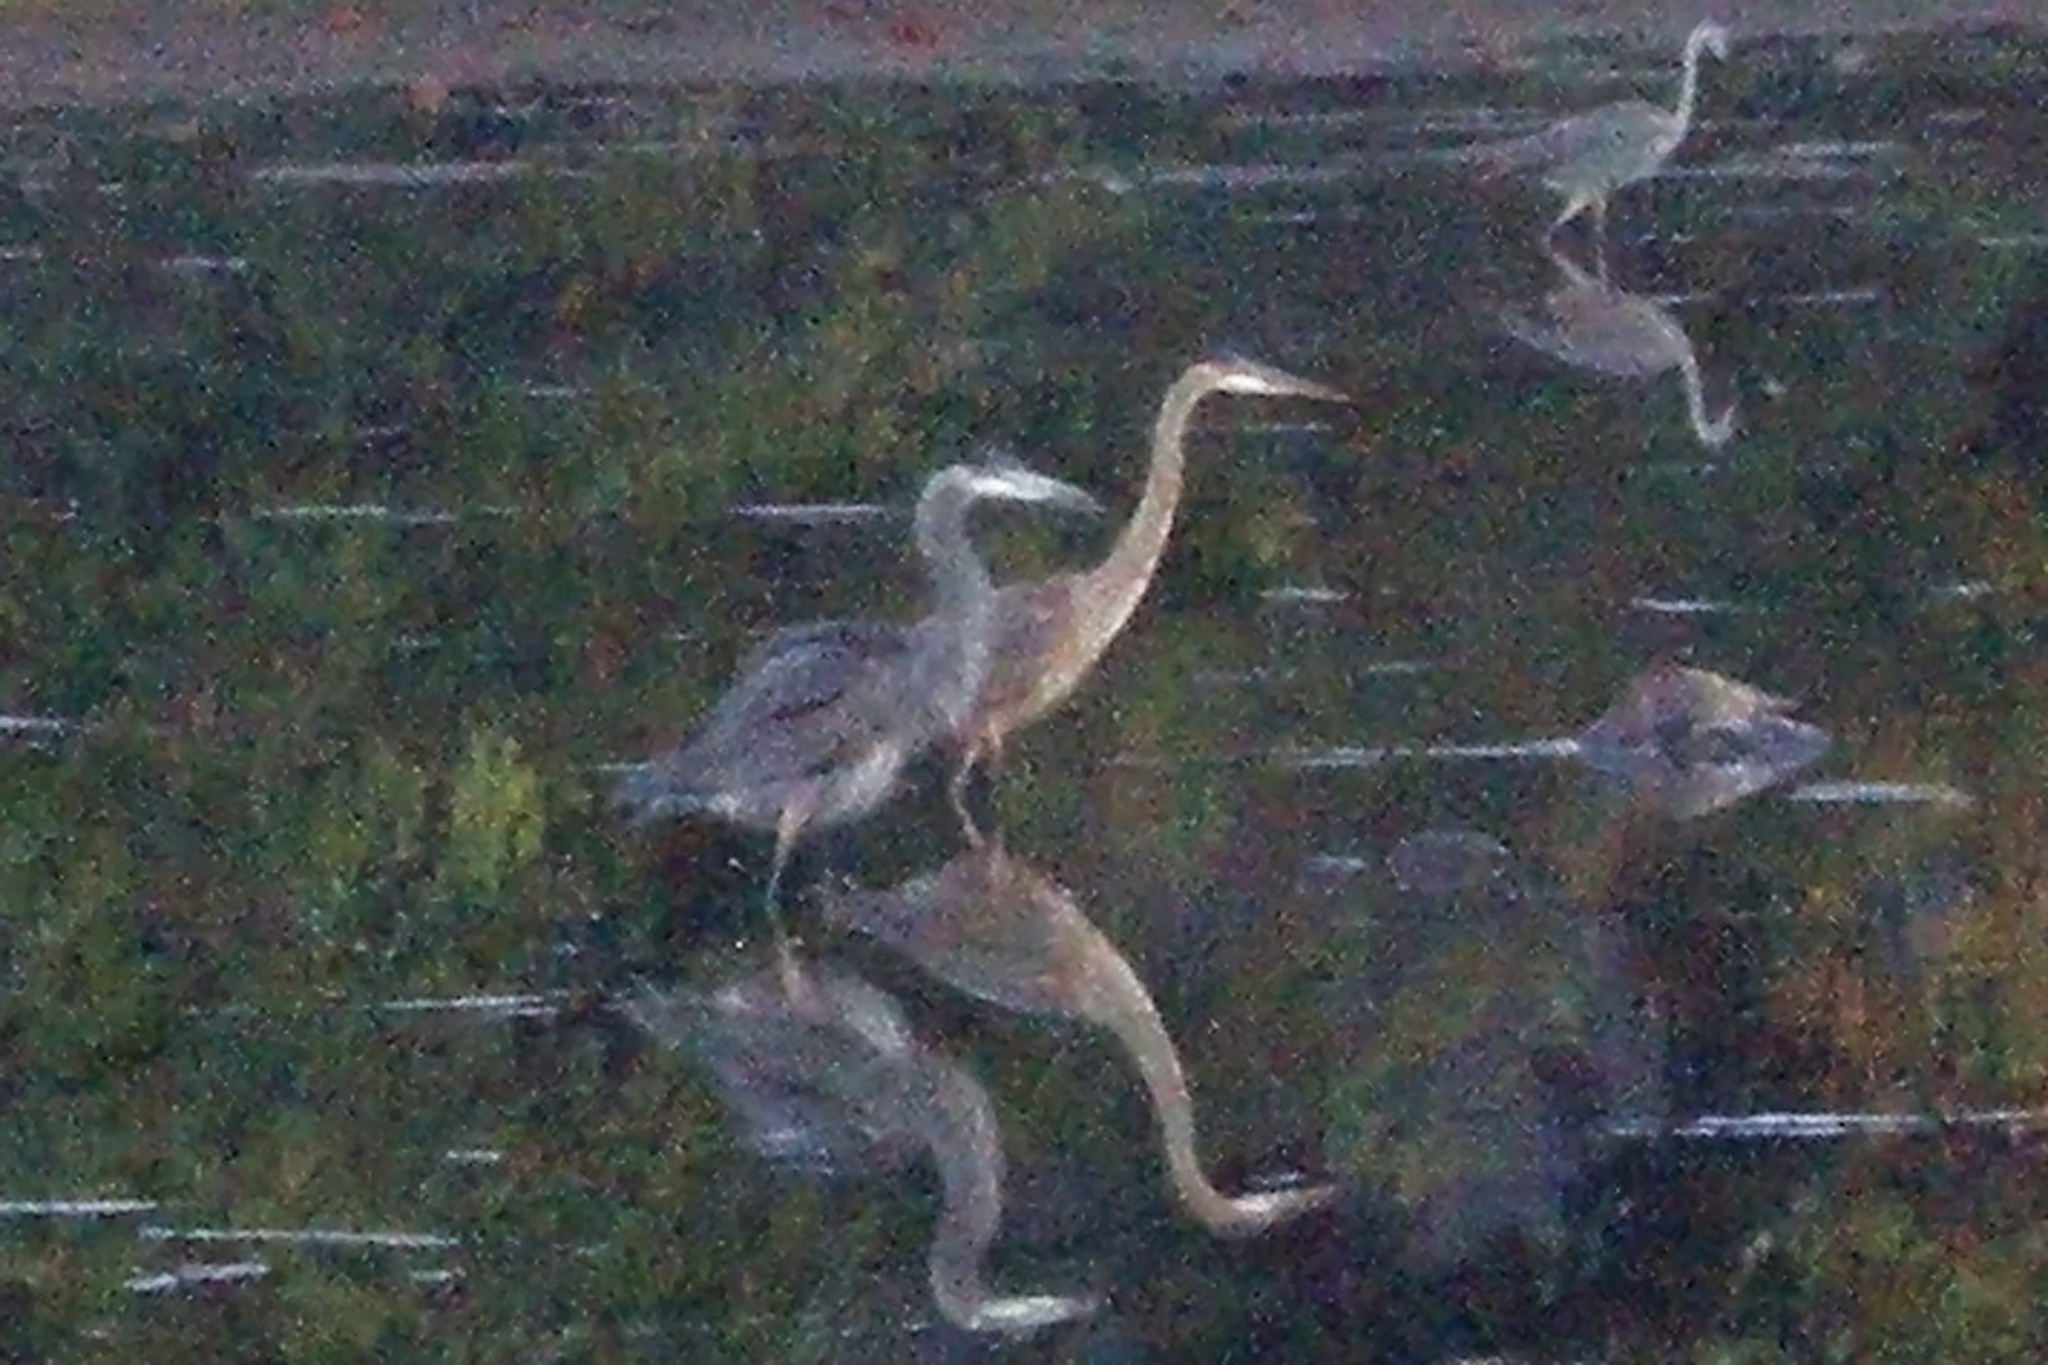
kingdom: Animalia
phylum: Chordata
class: Aves
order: Pelecaniformes
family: Ardeidae
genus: Ardea
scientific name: Ardea herodias
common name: Great blue heron
